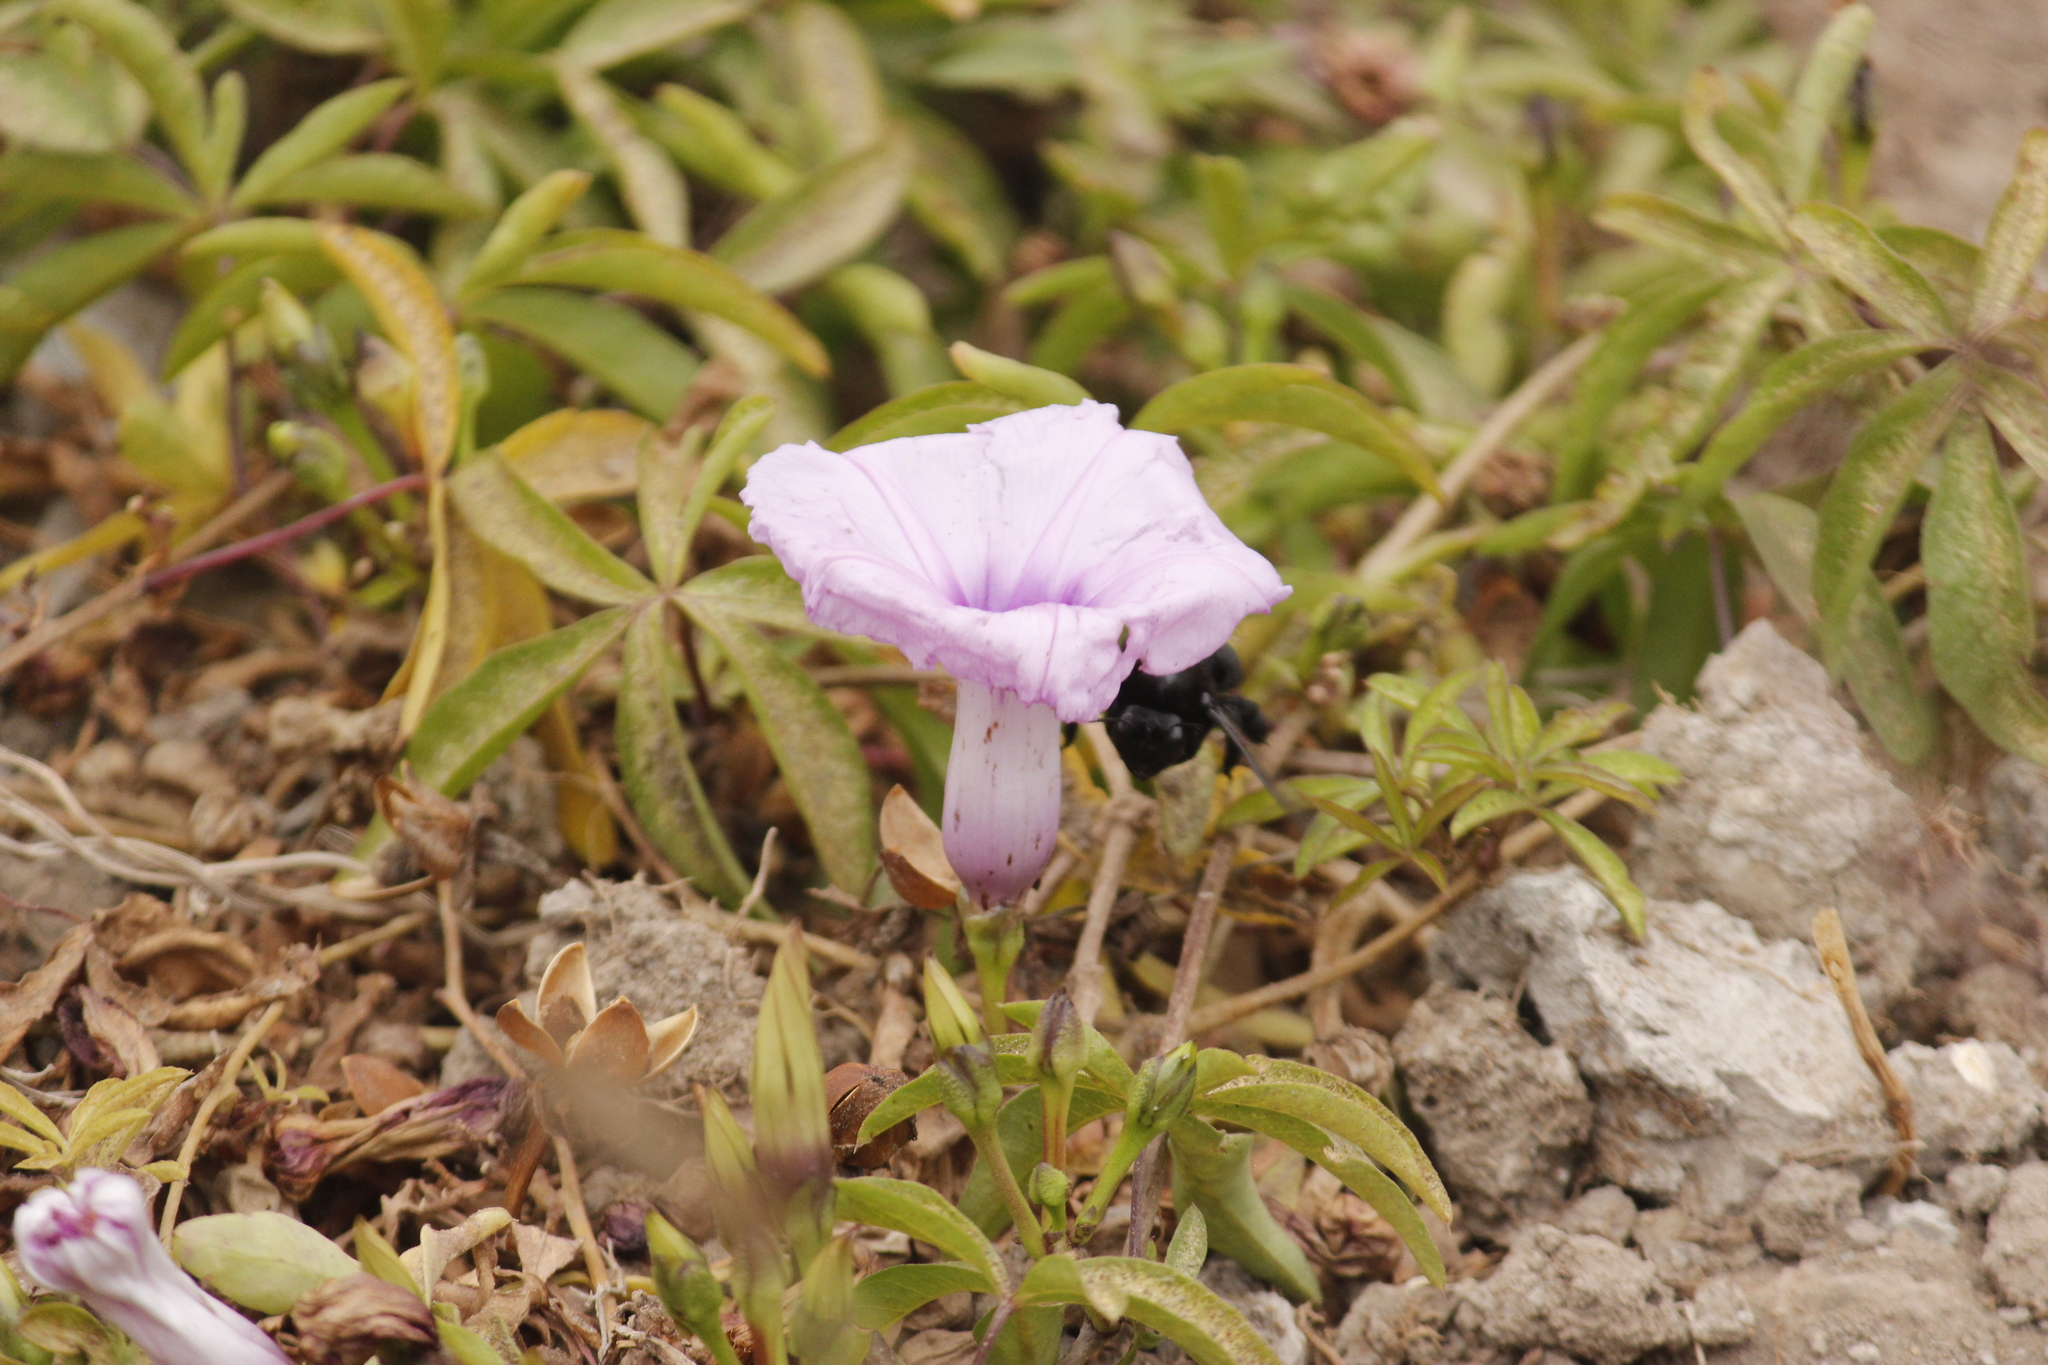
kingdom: Plantae
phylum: Tracheophyta
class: Magnoliopsida
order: Solanales
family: Convolvulaceae
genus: Ipomoea
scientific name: Ipomoea cairica
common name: Mile a minute vine
